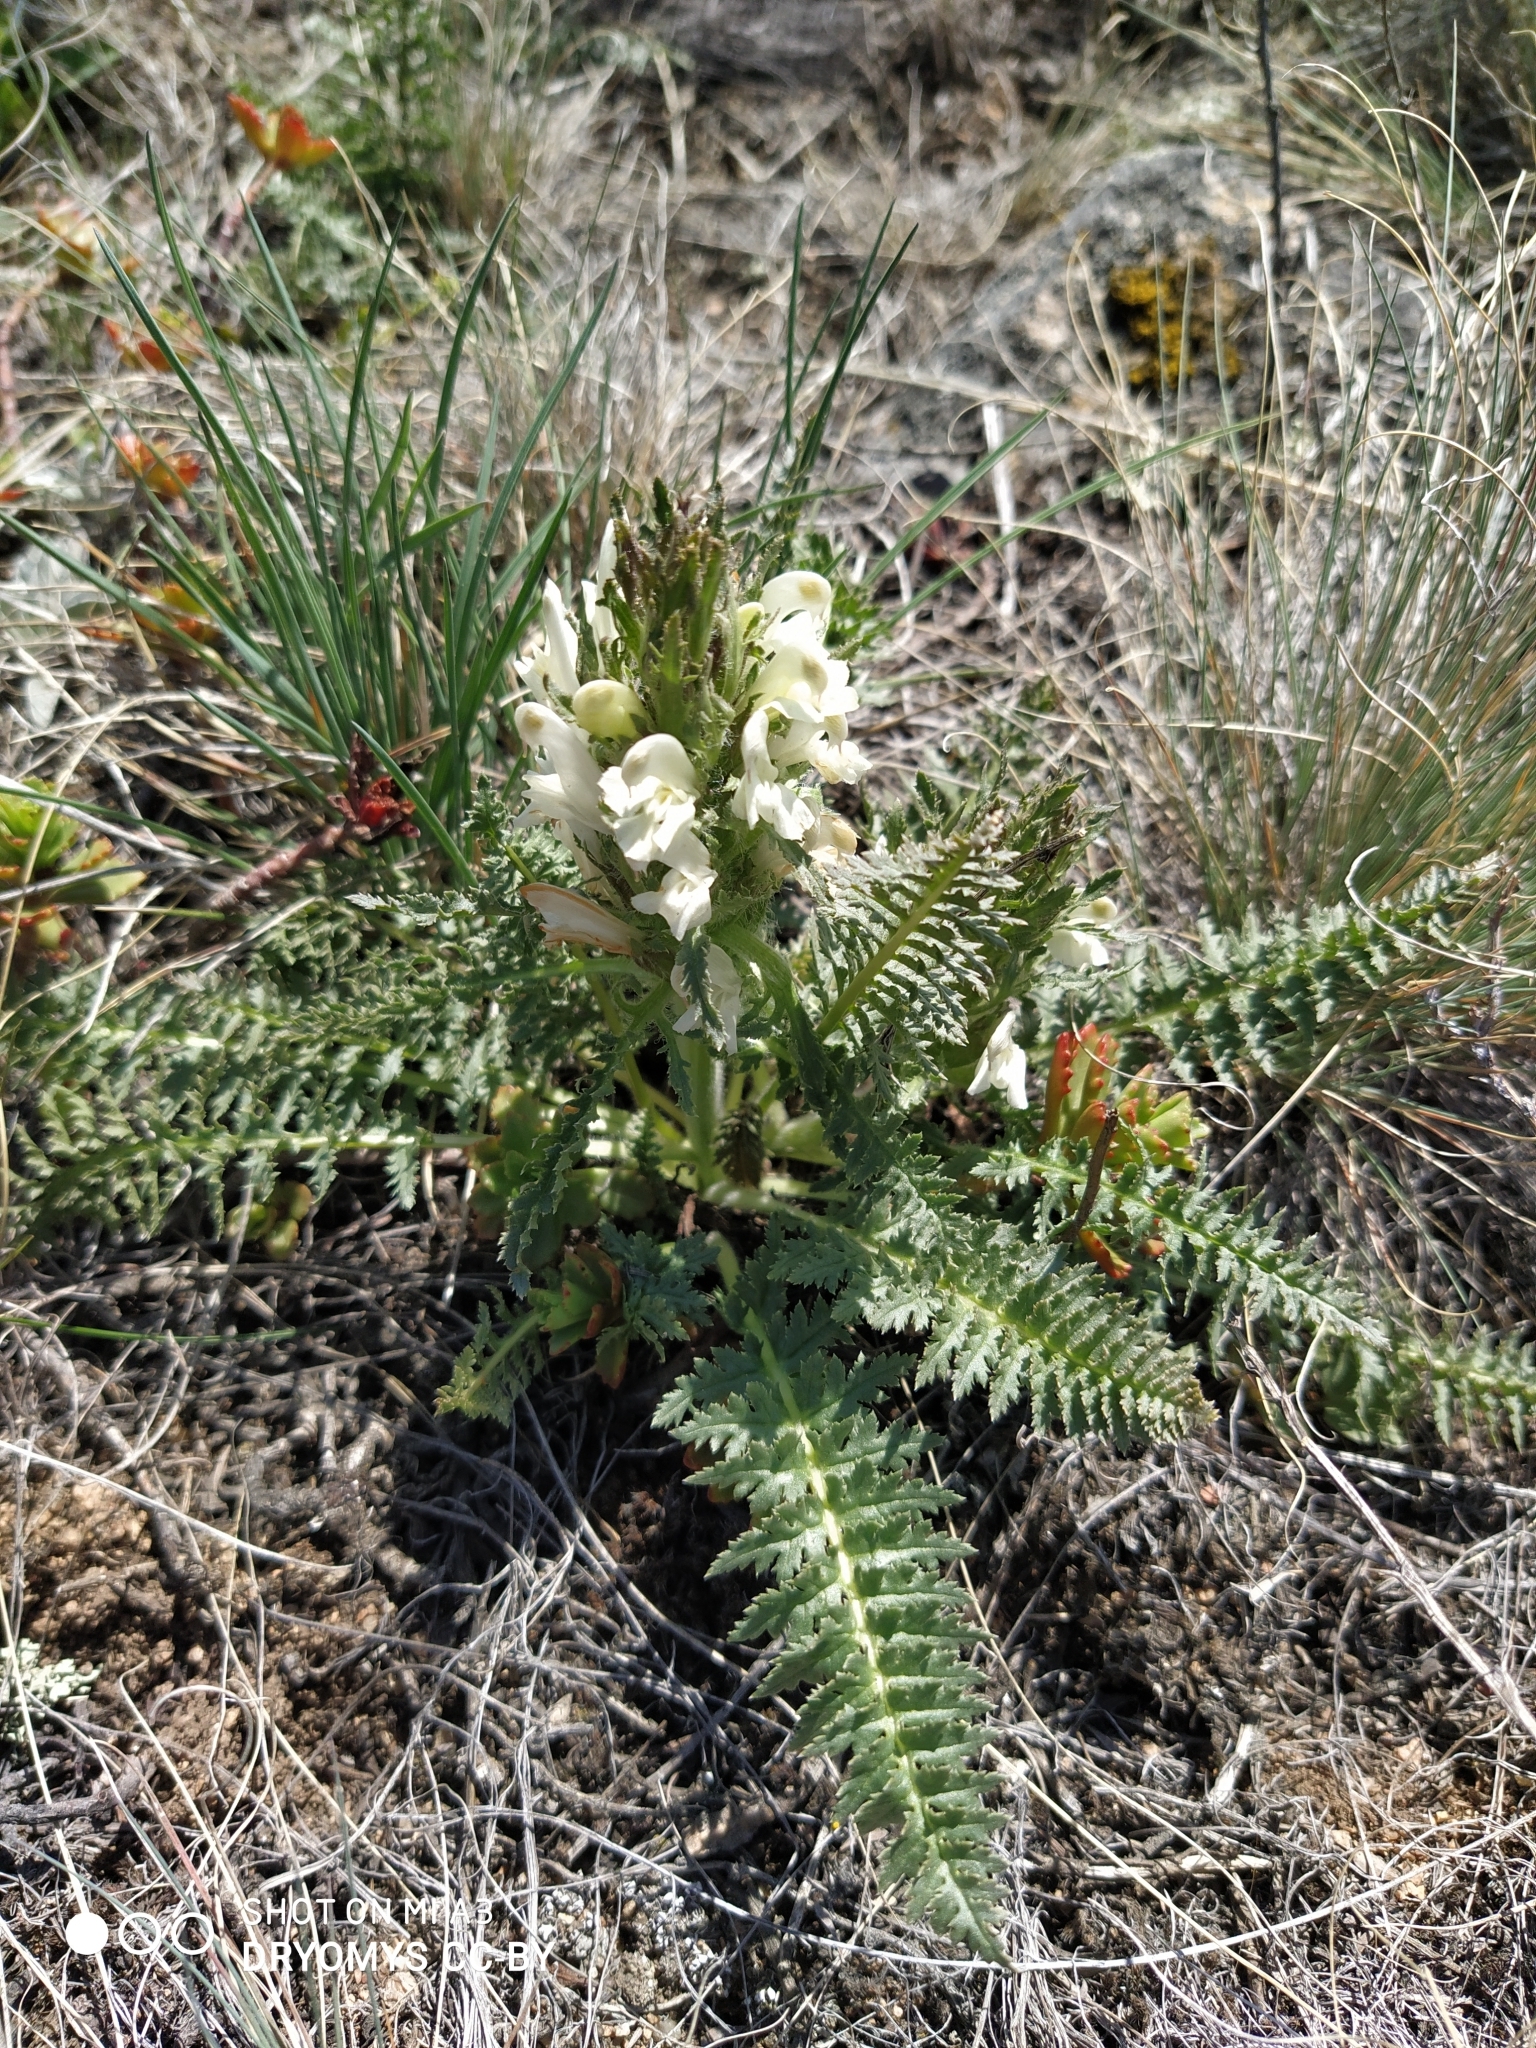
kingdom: Plantae
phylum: Tracheophyta
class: Magnoliopsida
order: Lamiales
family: Orobanchaceae
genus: Pedicularis
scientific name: Pedicularis physocalyx
